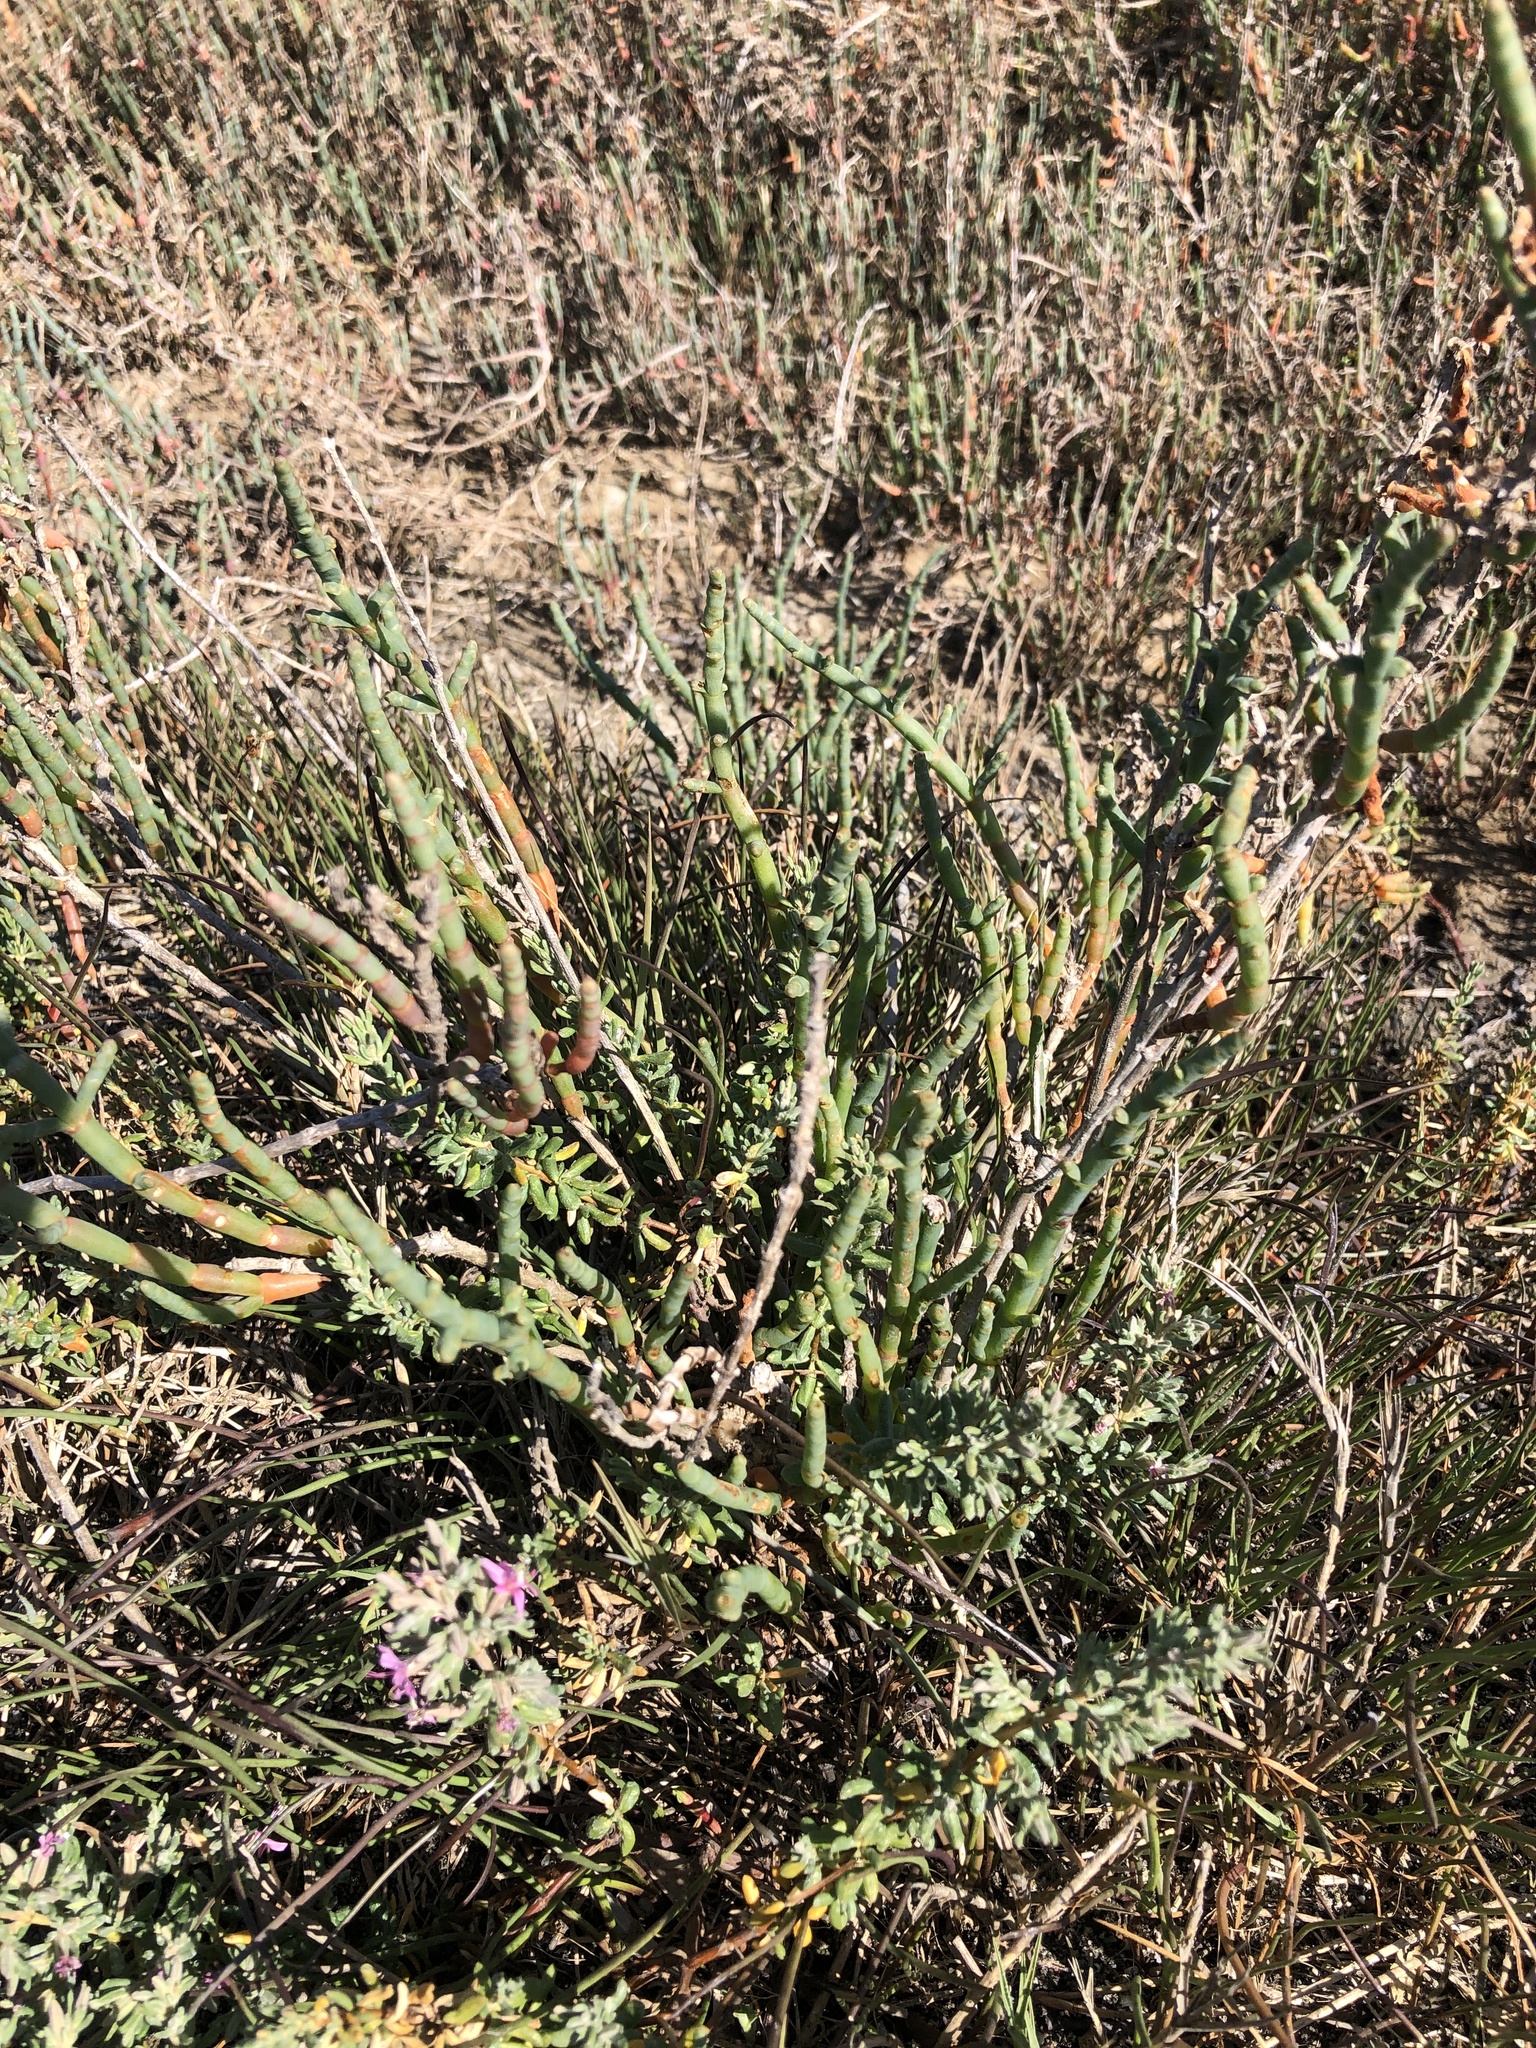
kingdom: Plantae
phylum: Tracheophyta
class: Magnoliopsida
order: Caryophyllales
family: Amaranthaceae
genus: Salicornia
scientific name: Salicornia pacifica
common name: Pacific glasswort
